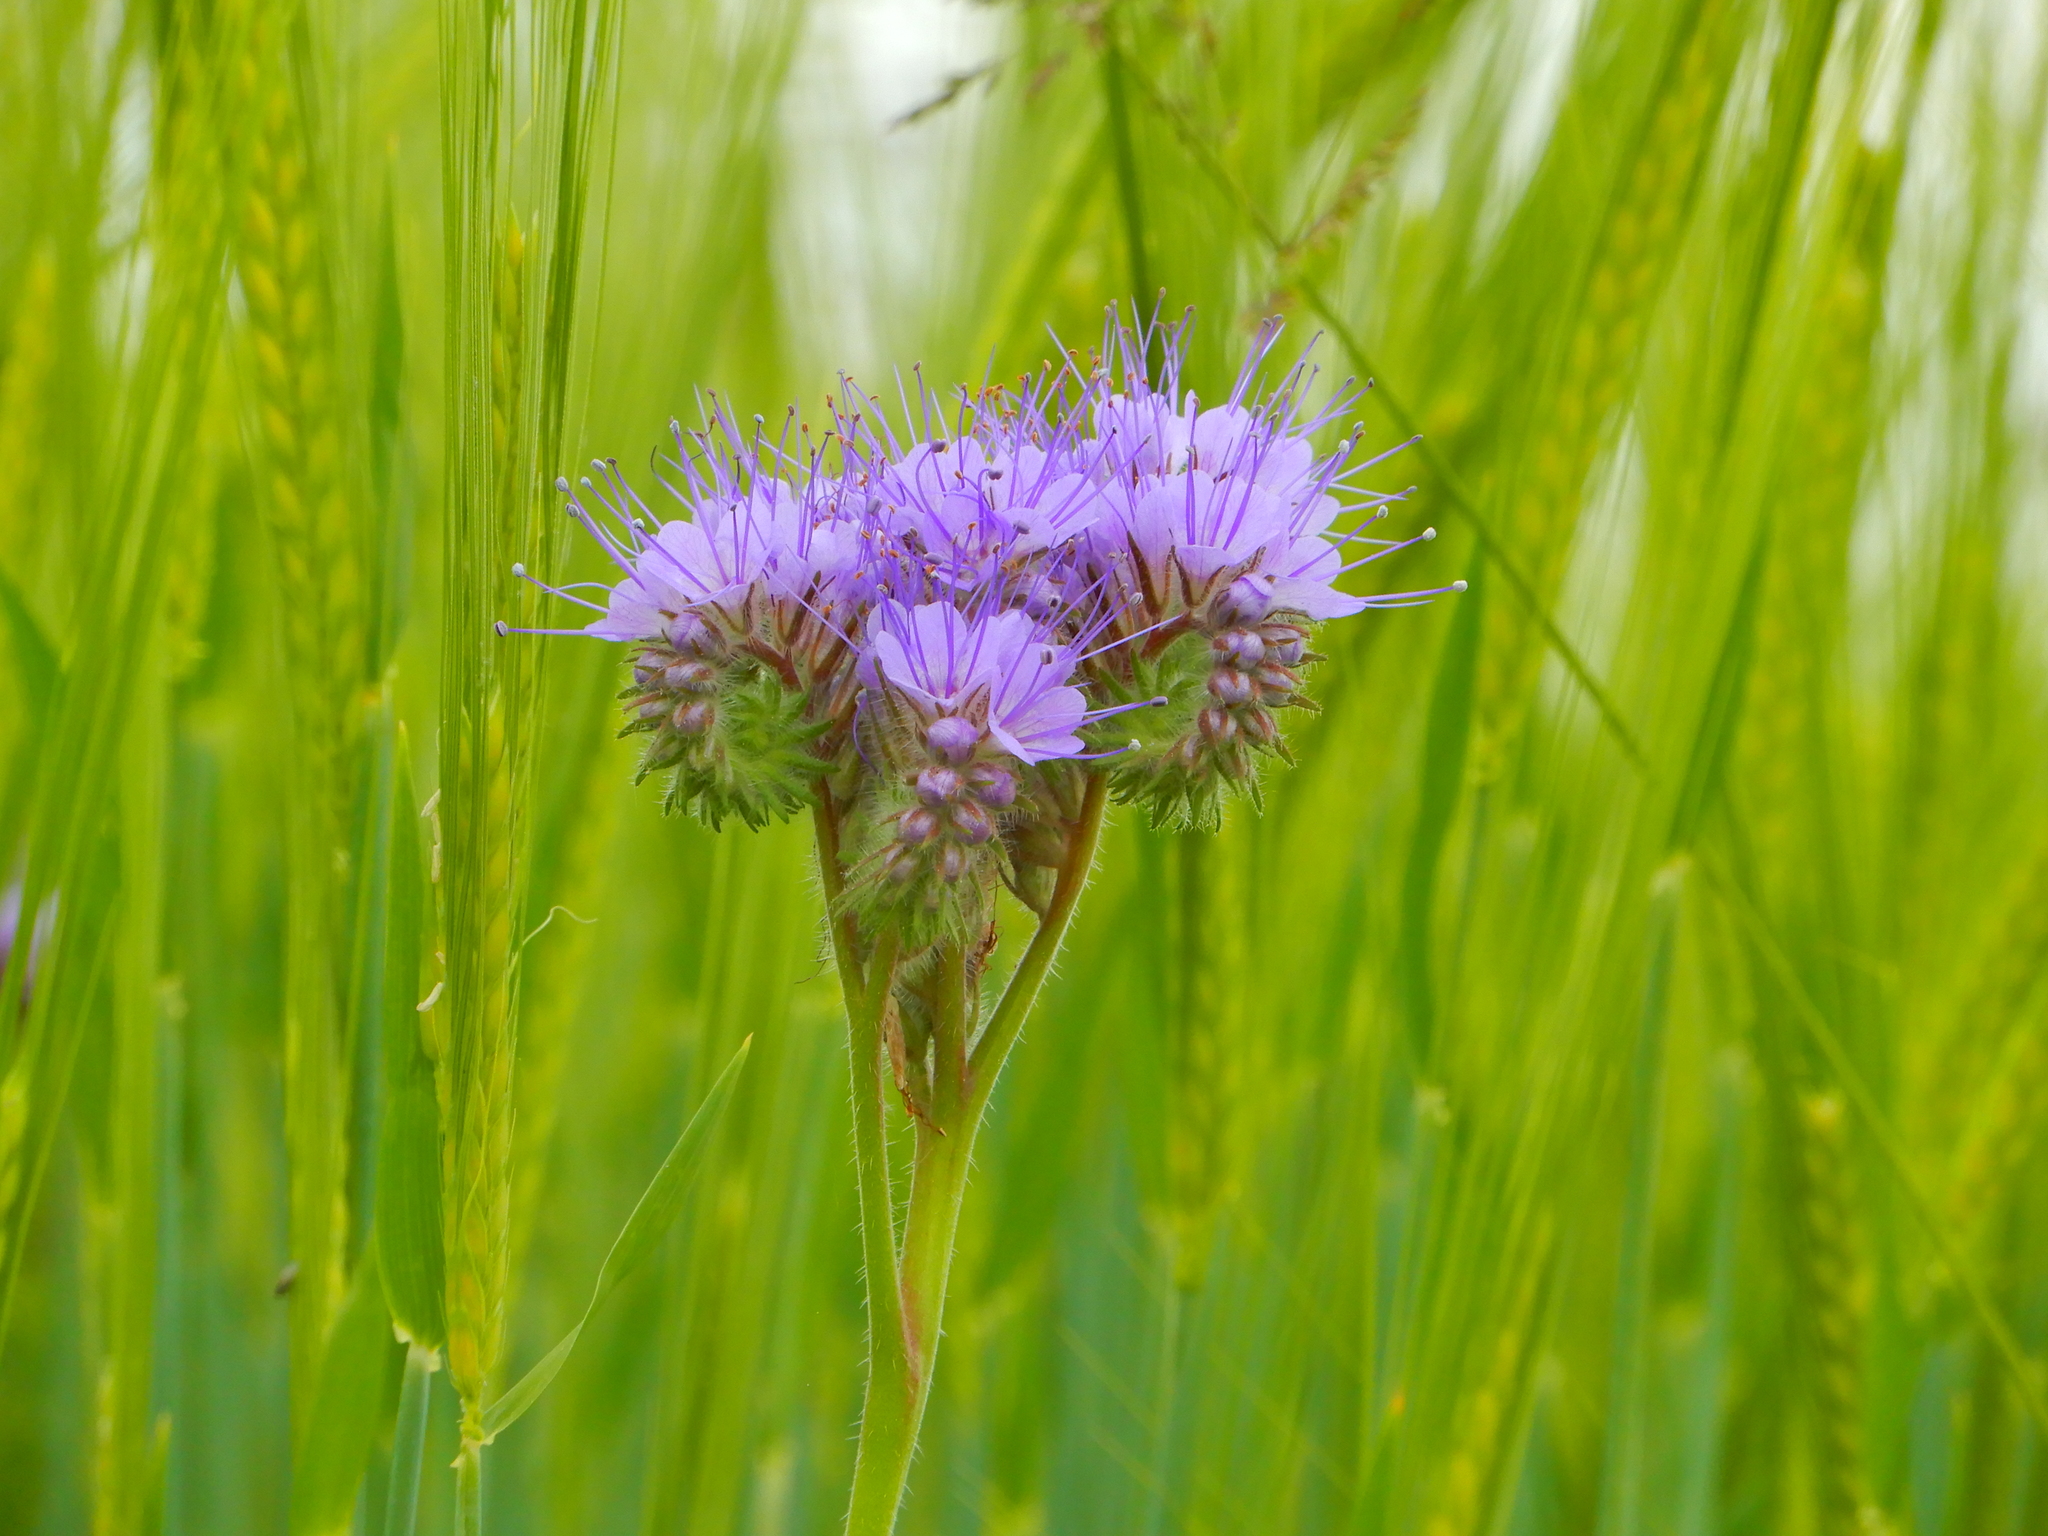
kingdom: Plantae
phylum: Tracheophyta
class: Magnoliopsida
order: Boraginales
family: Hydrophyllaceae
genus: Phacelia
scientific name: Phacelia tanacetifolia
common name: Phacelia
